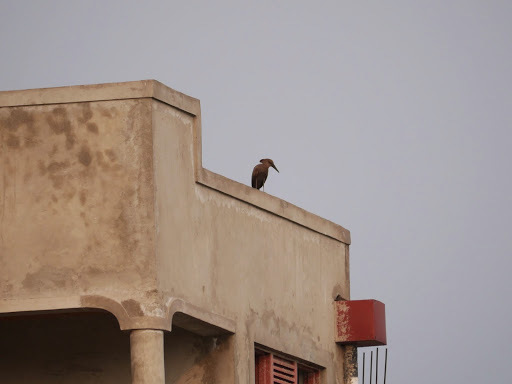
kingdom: Animalia
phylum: Chordata
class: Aves
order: Pelecaniformes
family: Scopidae
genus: Scopus
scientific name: Scopus umbretta
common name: Hamerkop
